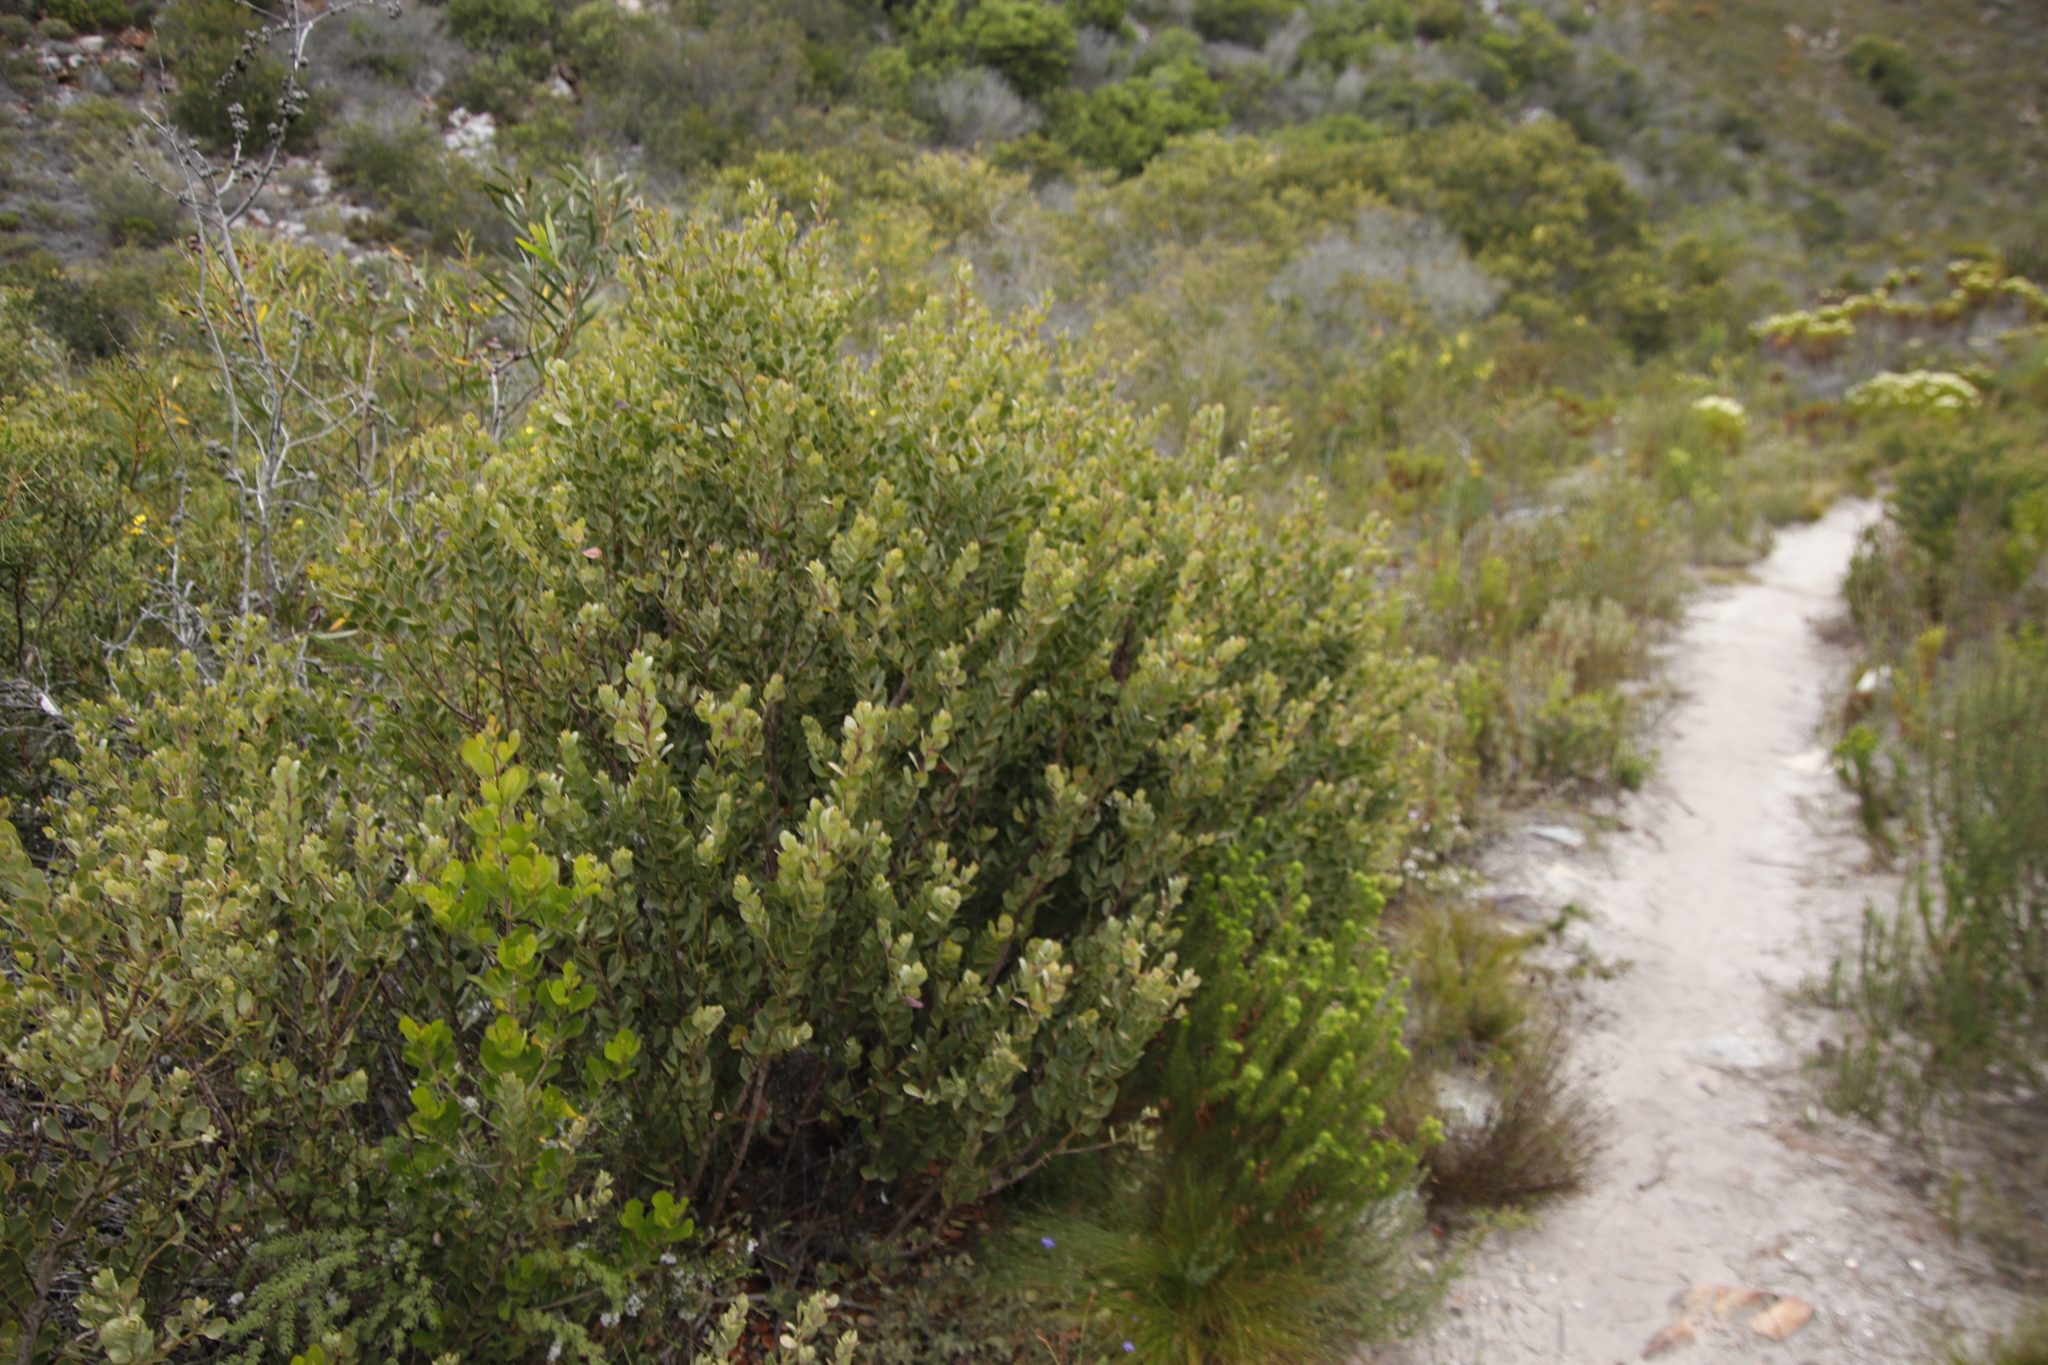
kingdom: Plantae
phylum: Tracheophyta
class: Magnoliopsida
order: Santalales
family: Santalaceae
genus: Osyris
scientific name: Osyris compressa
